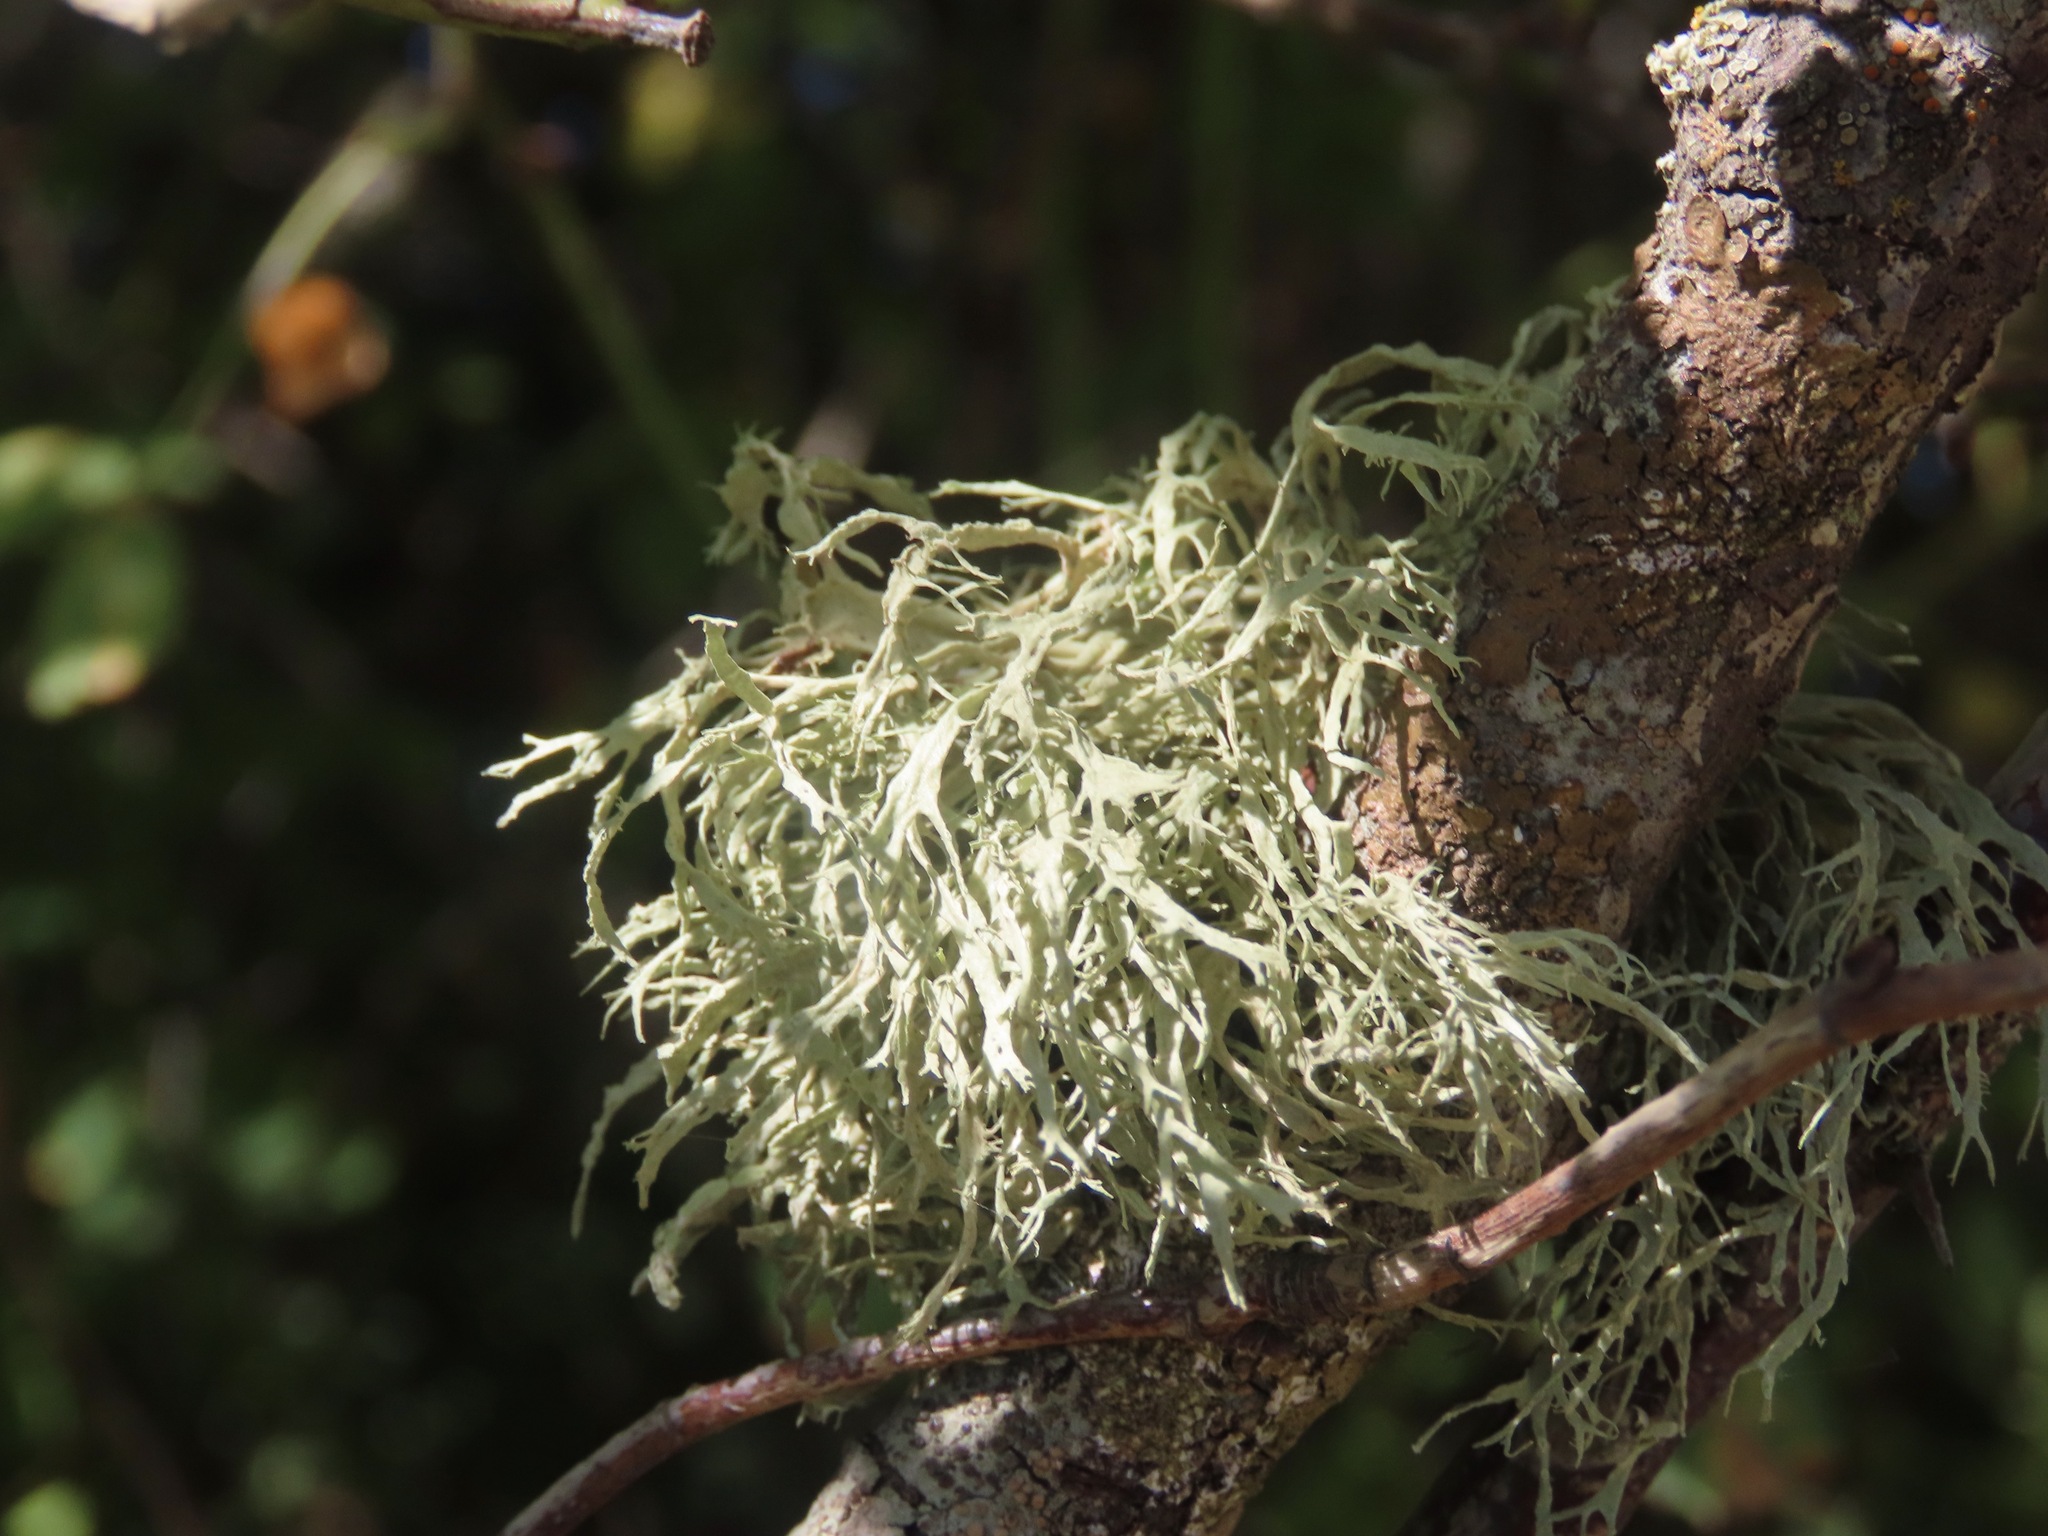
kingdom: Fungi
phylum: Ascomycota
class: Lecanoromycetes
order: Lecanorales
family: Ramalinaceae
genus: Ramalina
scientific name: Ramalina farinacea
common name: Farinose cartilage lichen
